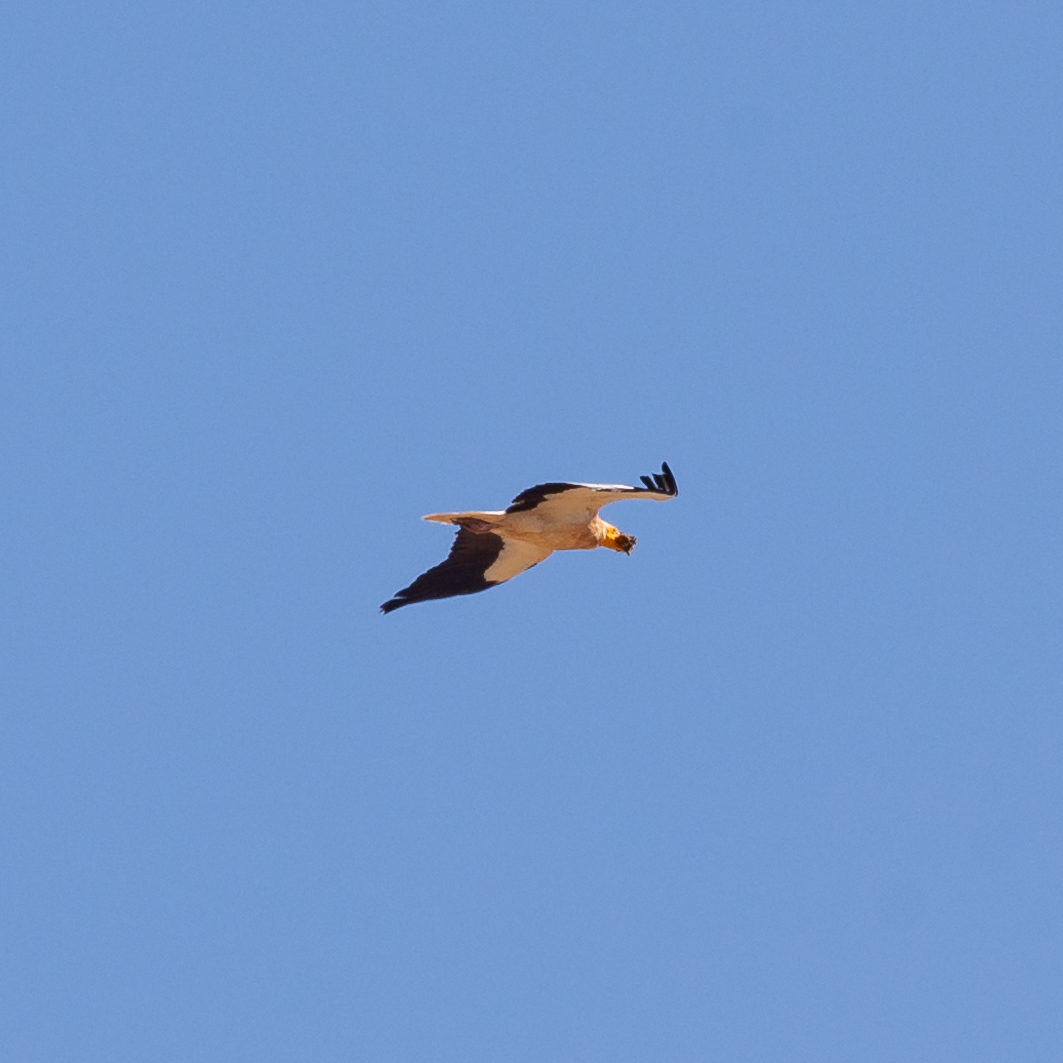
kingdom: Animalia
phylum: Chordata
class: Aves
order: Accipitriformes
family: Accipitridae
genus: Neophron
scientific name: Neophron percnopterus
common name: Egyptian vulture
